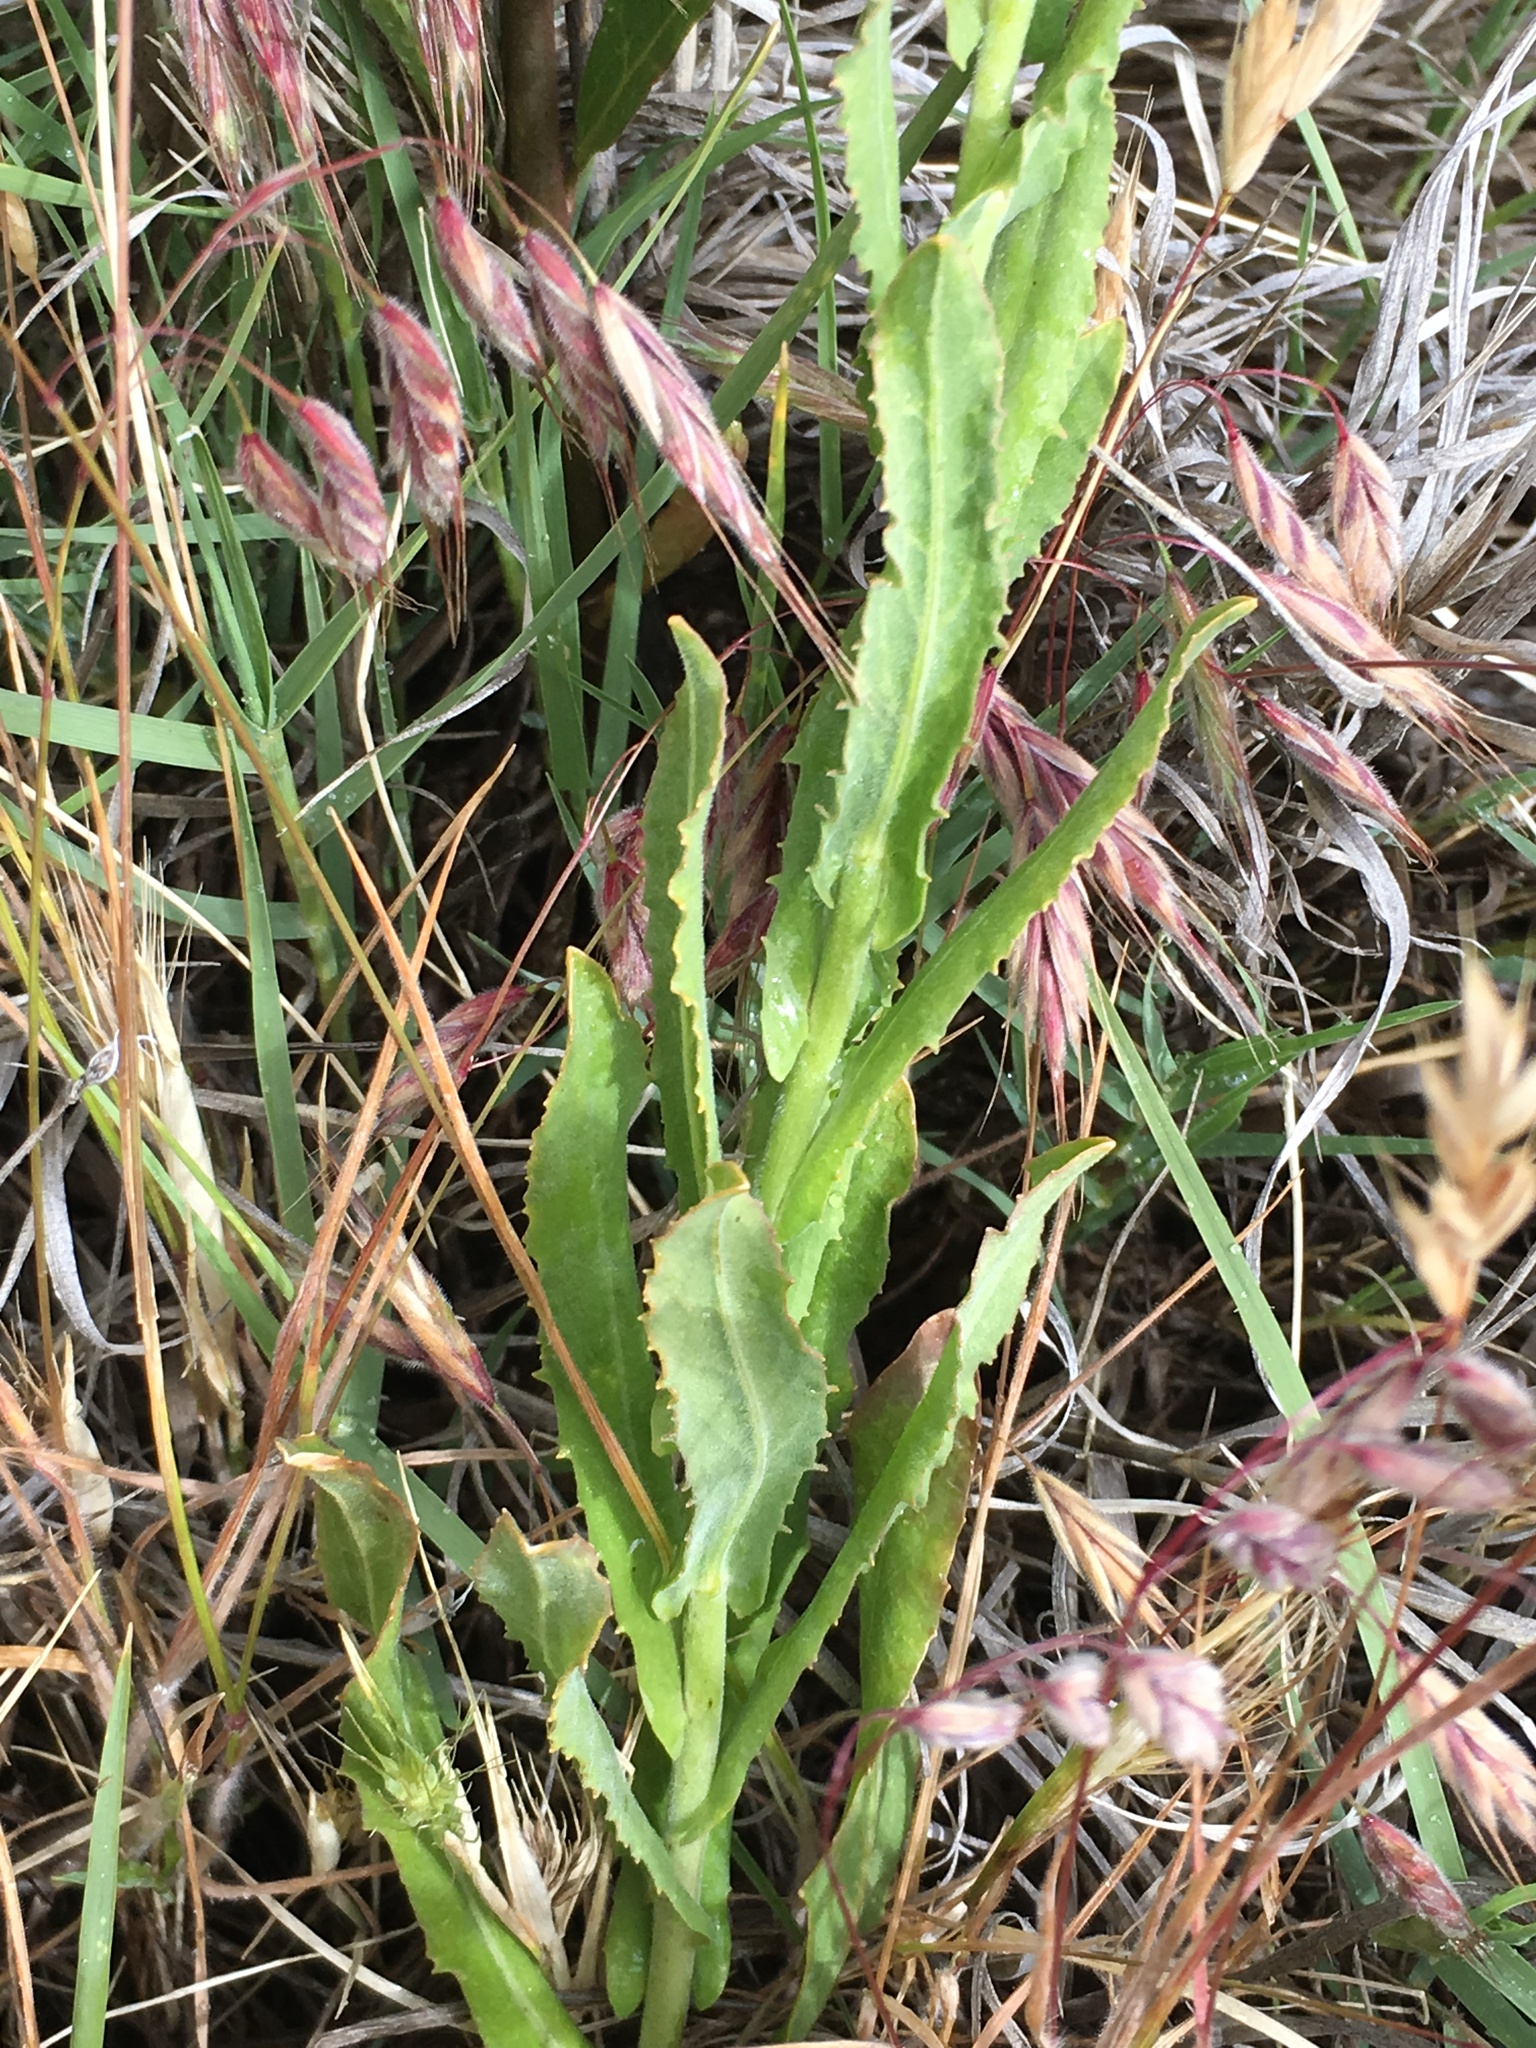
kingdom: Plantae
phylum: Tracheophyta
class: Magnoliopsida
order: Brassicales
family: Brassicaceae
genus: Lepidium
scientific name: Lepidium appelianum
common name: Hairy whitetop
